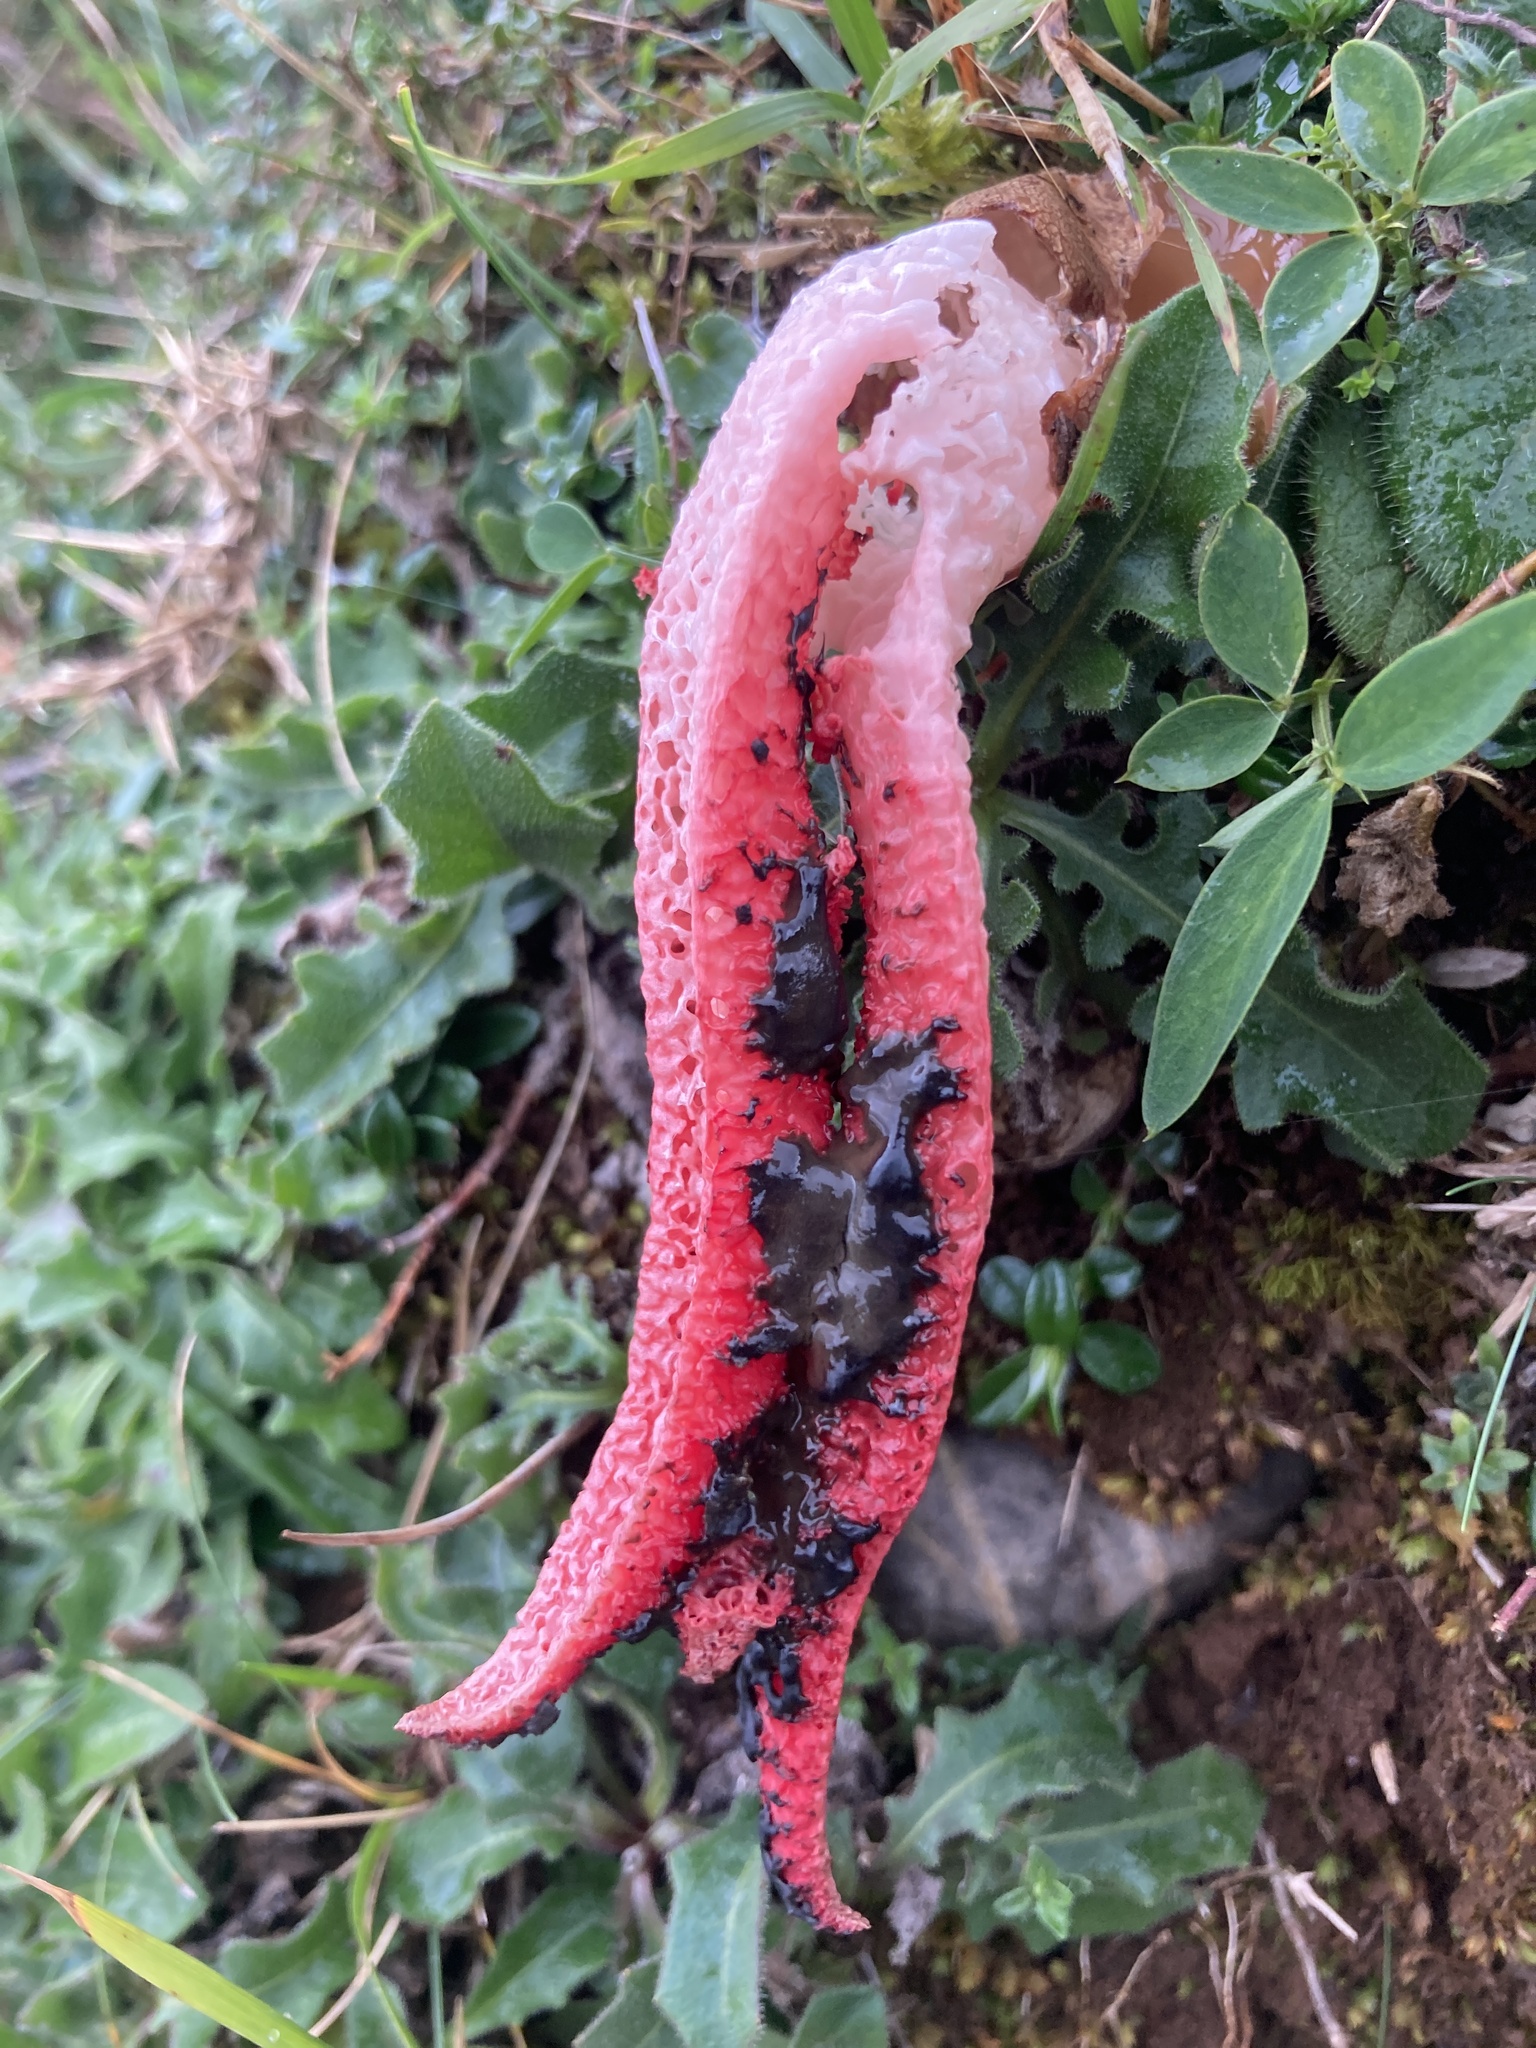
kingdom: Fungi
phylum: Basidiomycota
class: Agaricomycetes
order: Phallales
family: Phallaceae
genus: Clathrus
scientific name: Clathrus archeri
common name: Devil's fingers
